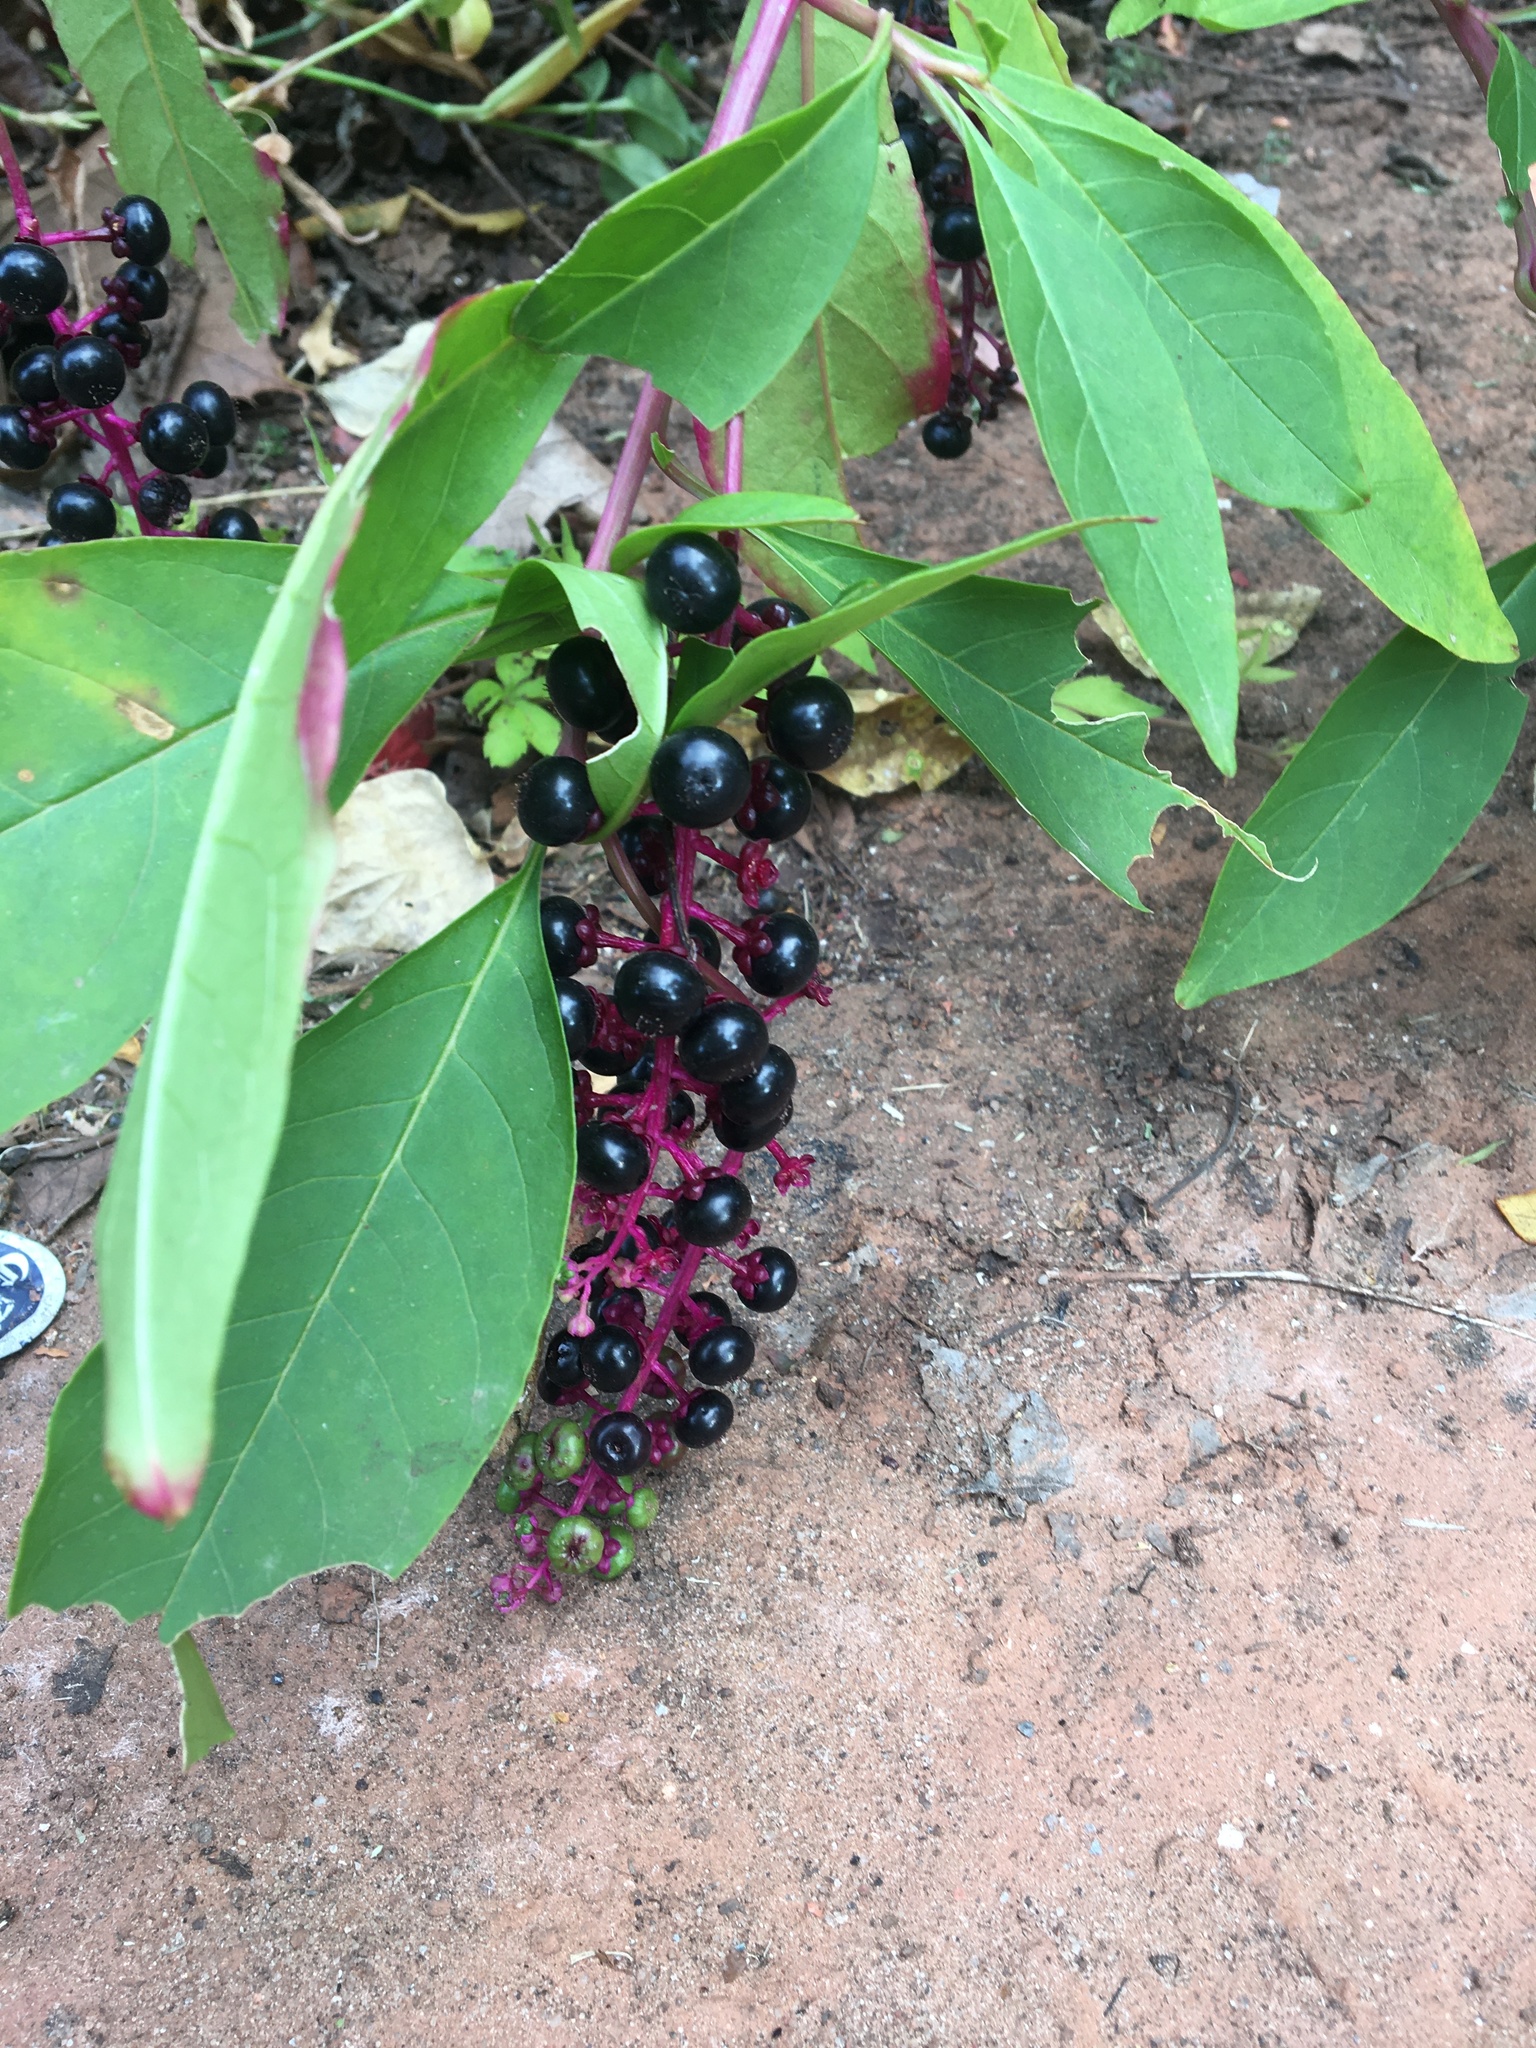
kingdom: Plantae
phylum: Tracheophyta
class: Magnoliopsida
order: Caryophyllales
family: Phytolaccaceae
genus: Phytolacca
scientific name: Phytolacca americana
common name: American pokeweed
